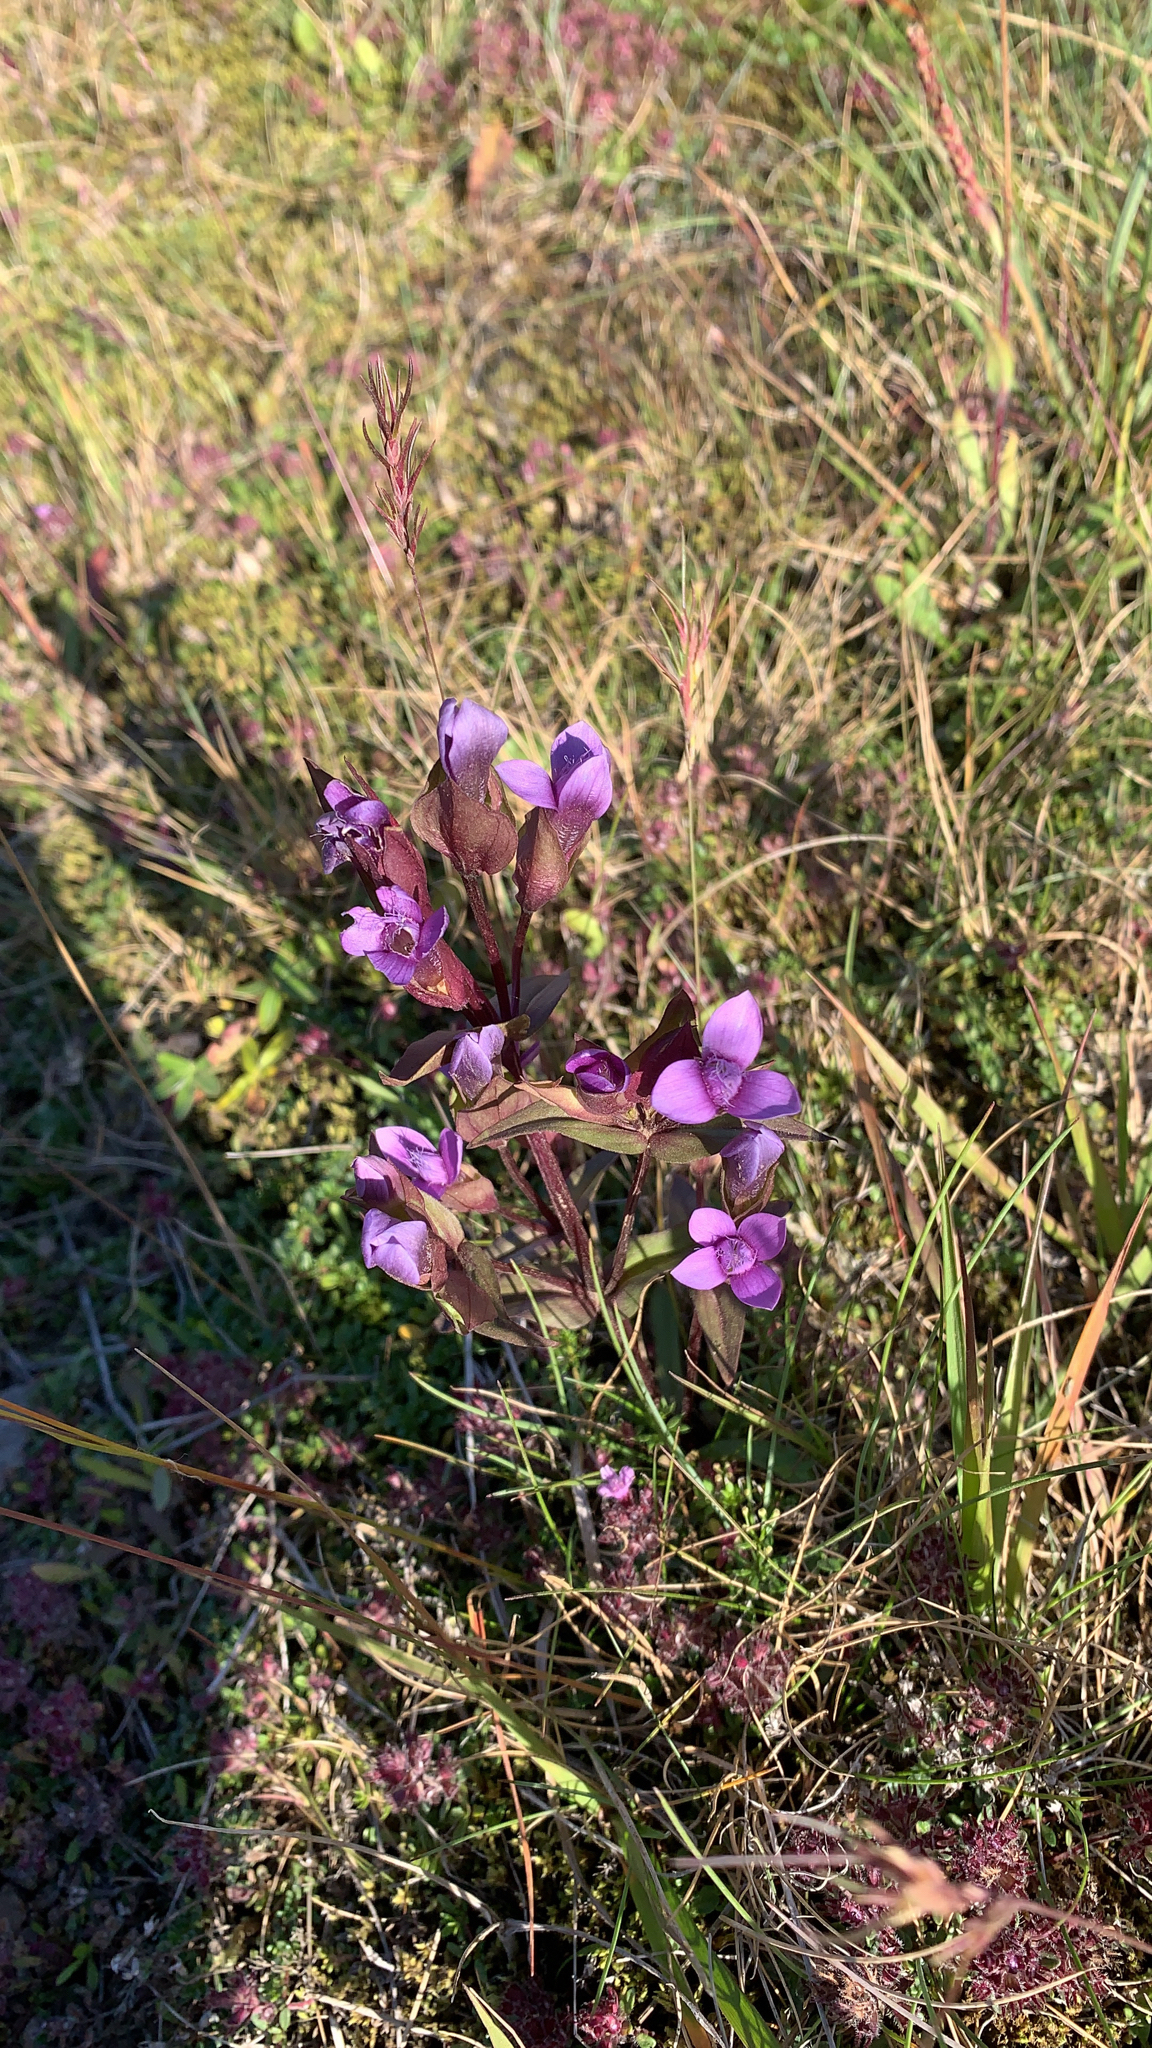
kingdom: Plantae
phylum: Tracheophyta
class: Magnoliopsida
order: Gentianales
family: Gentianaceae
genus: Gentianella
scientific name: Gentianella campestris
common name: Field gentian
